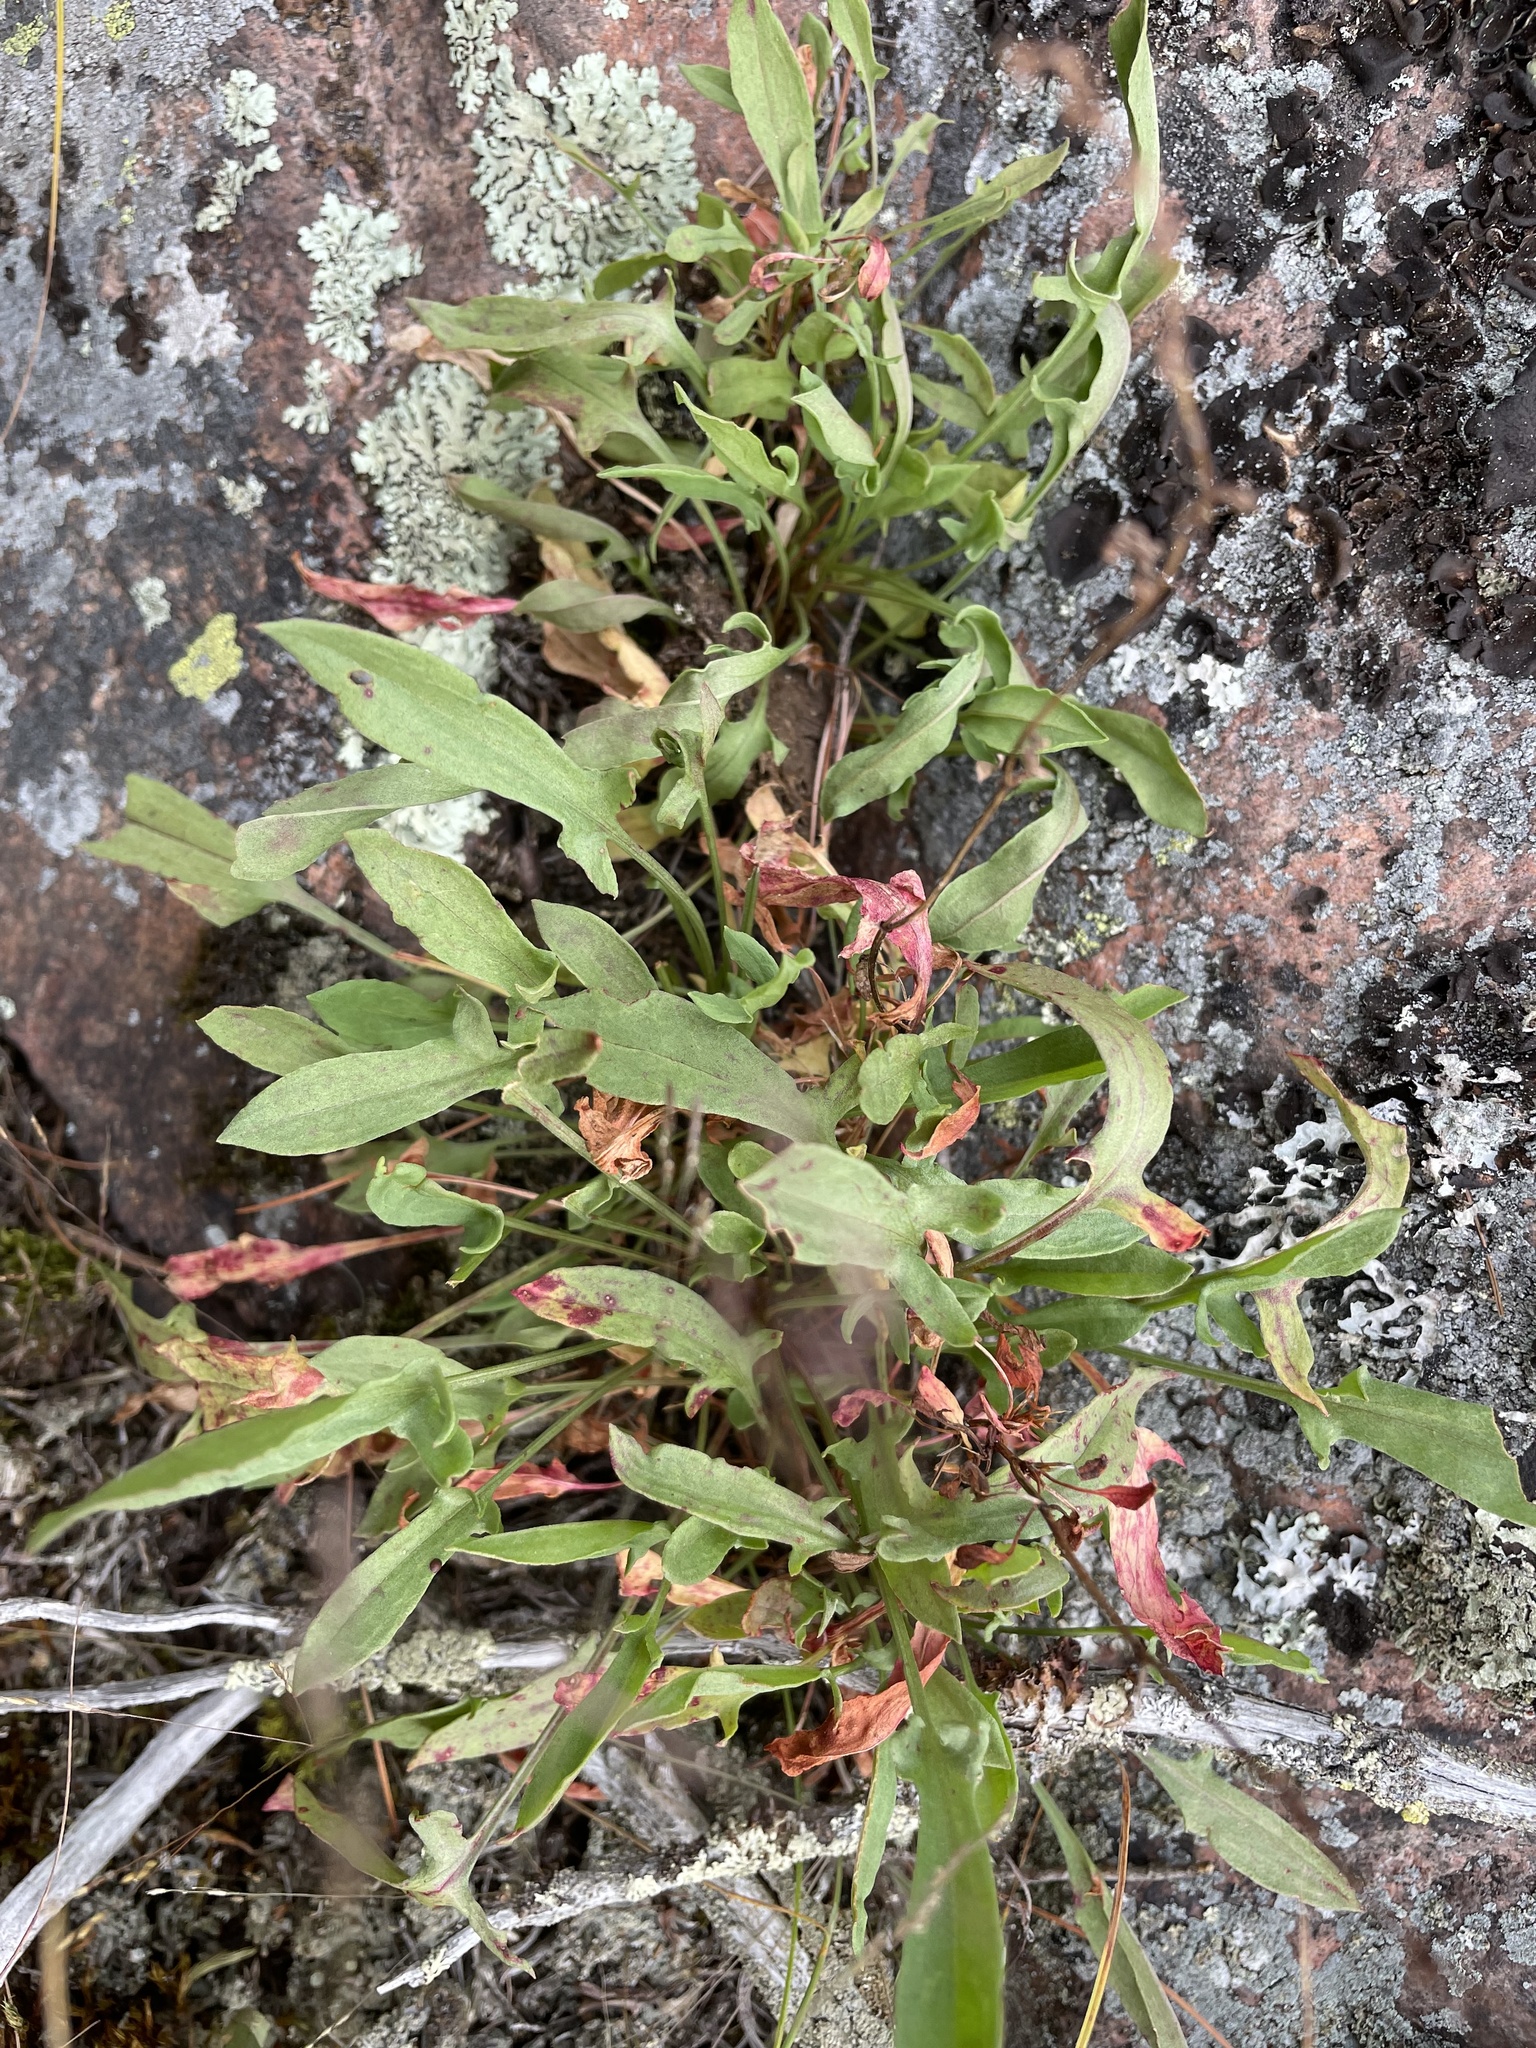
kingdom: Plantae
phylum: Tracheophyta
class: Magnoliopsida
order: Caryophyllales
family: Polygonaceae
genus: Rumex
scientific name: Rumex acetosella
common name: Common sheep sorrel
